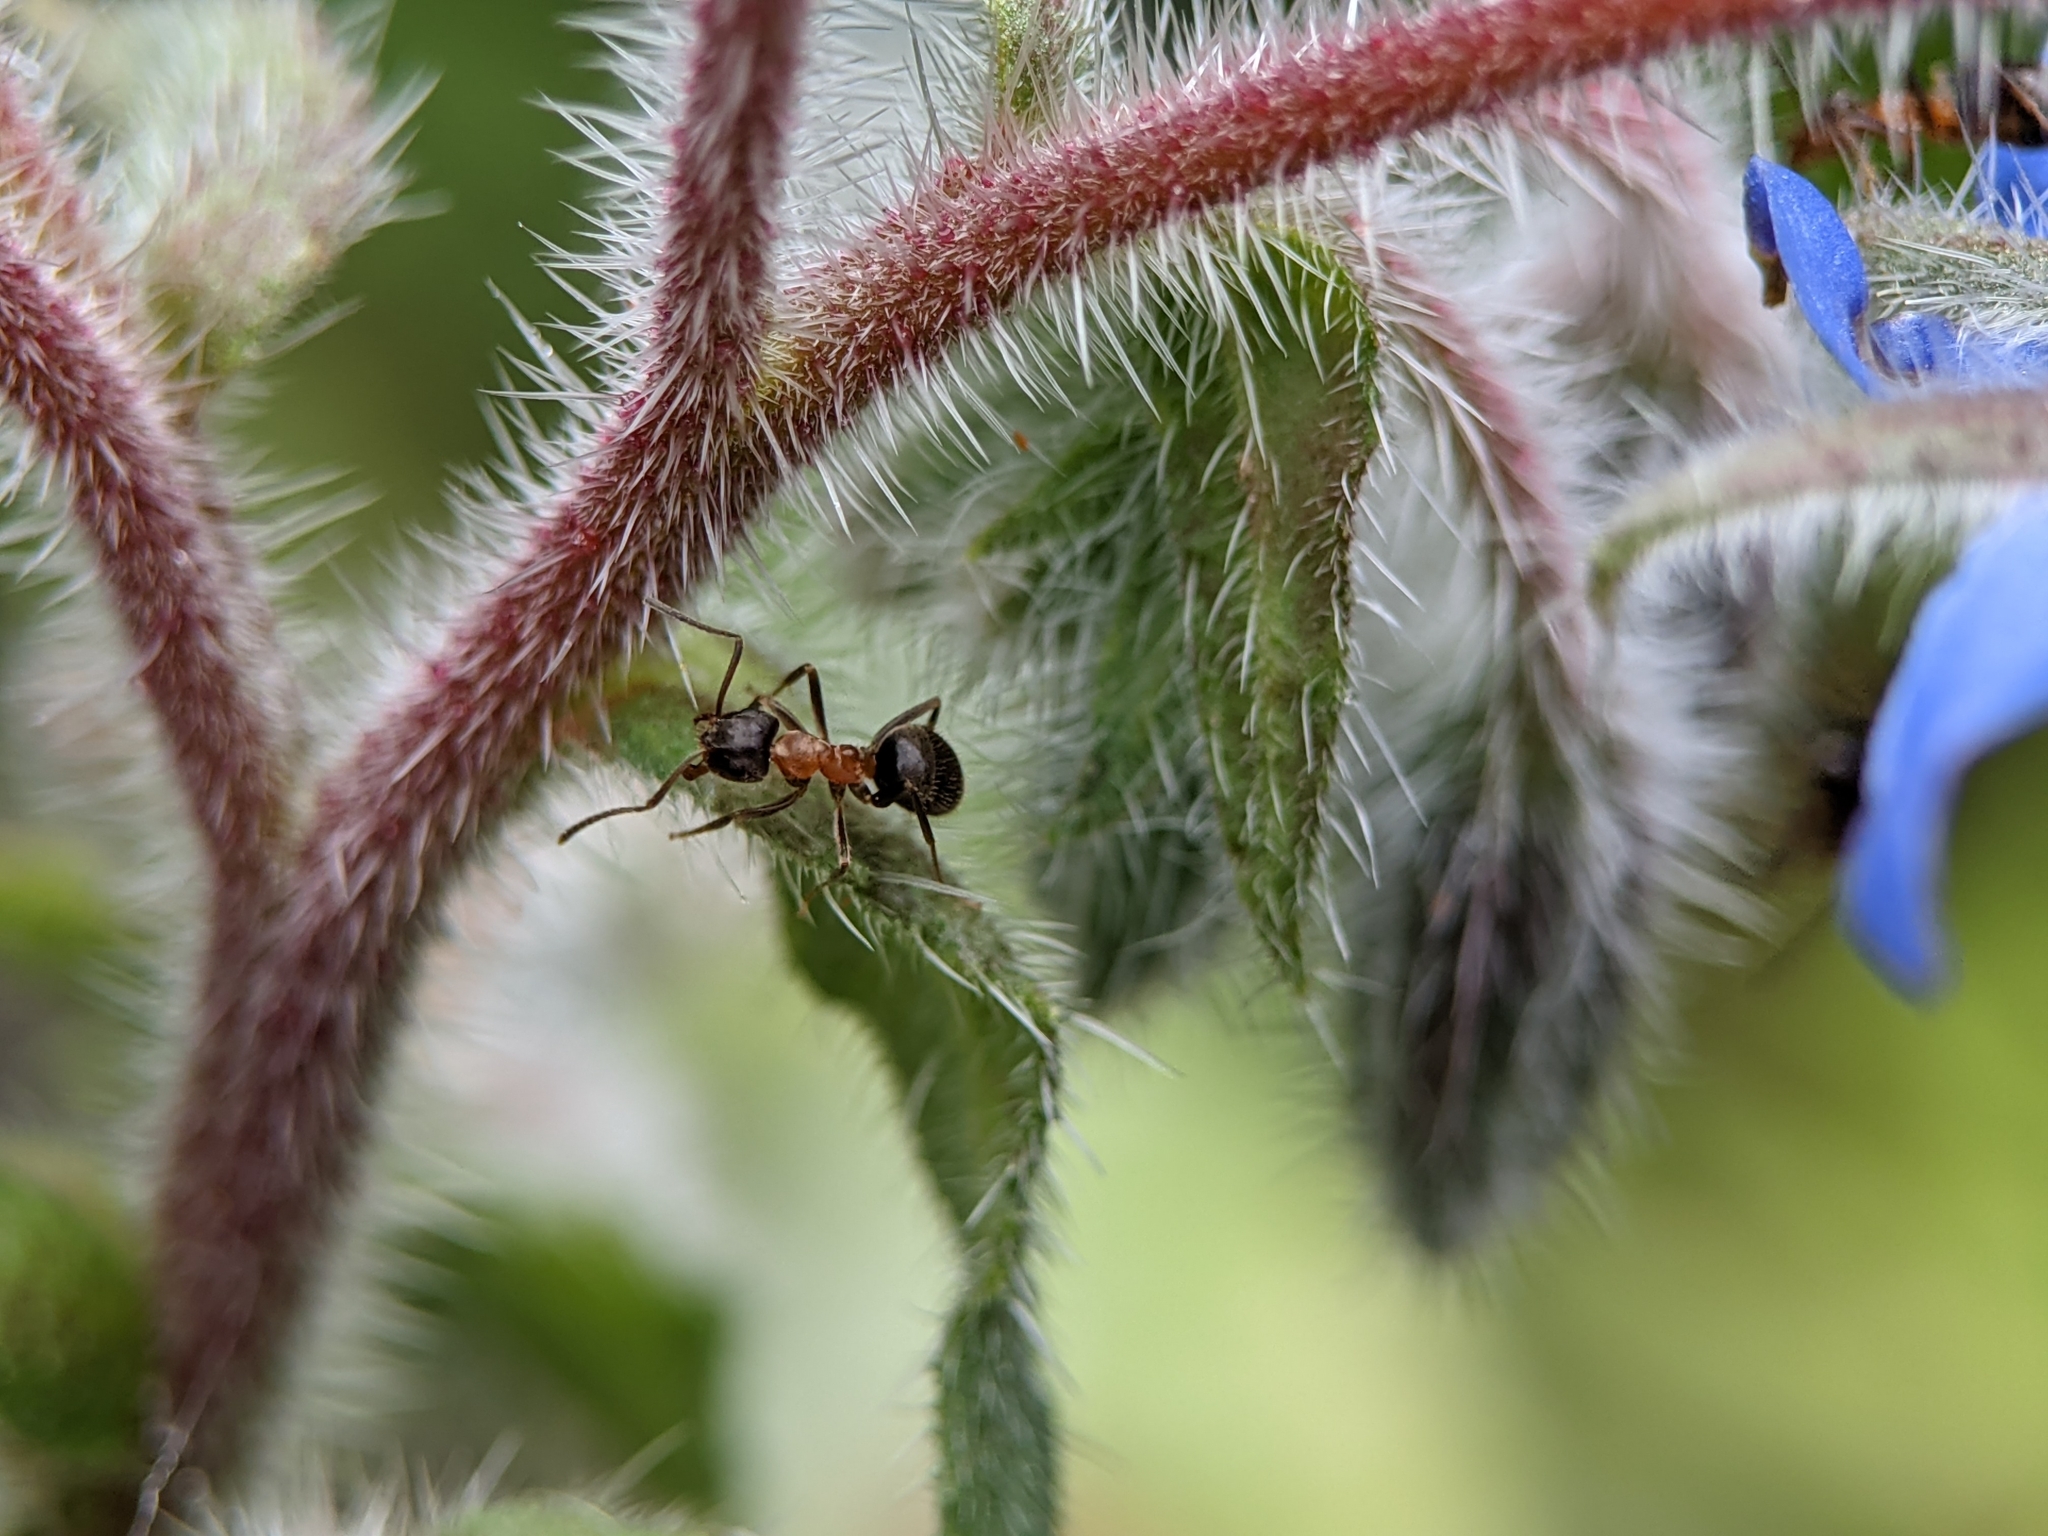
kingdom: Animalia
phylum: Arthropoda
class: Insecta
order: Hymenoptera
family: Formicidae
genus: Lasius
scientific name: Lasius emarginatus
